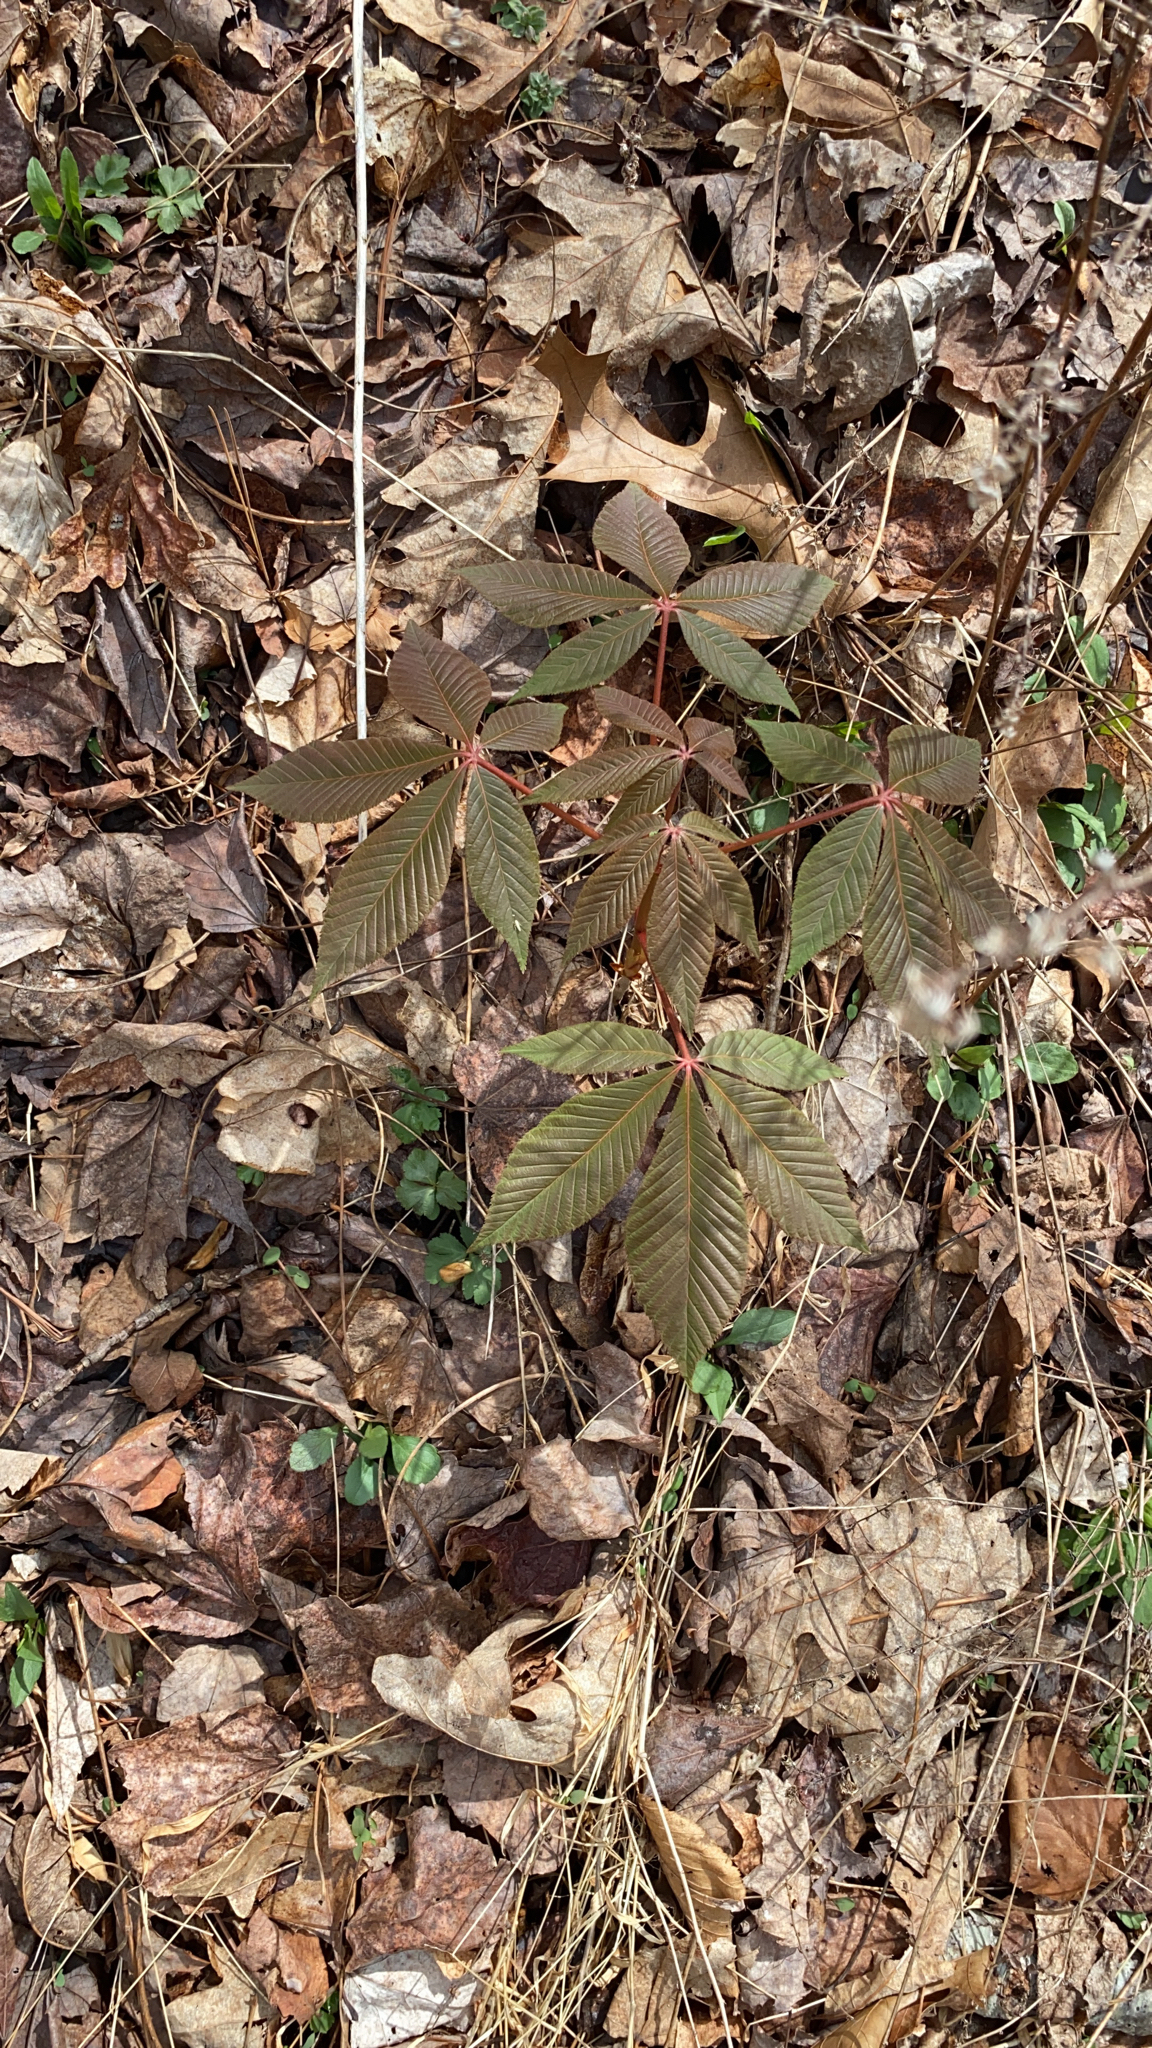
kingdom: Plantae
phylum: Tracheophyta
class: Magnoliopsida
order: Sapindales
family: Sapindaceae
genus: Aesculus
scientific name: Aesculus pavia
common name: Red buckeye
